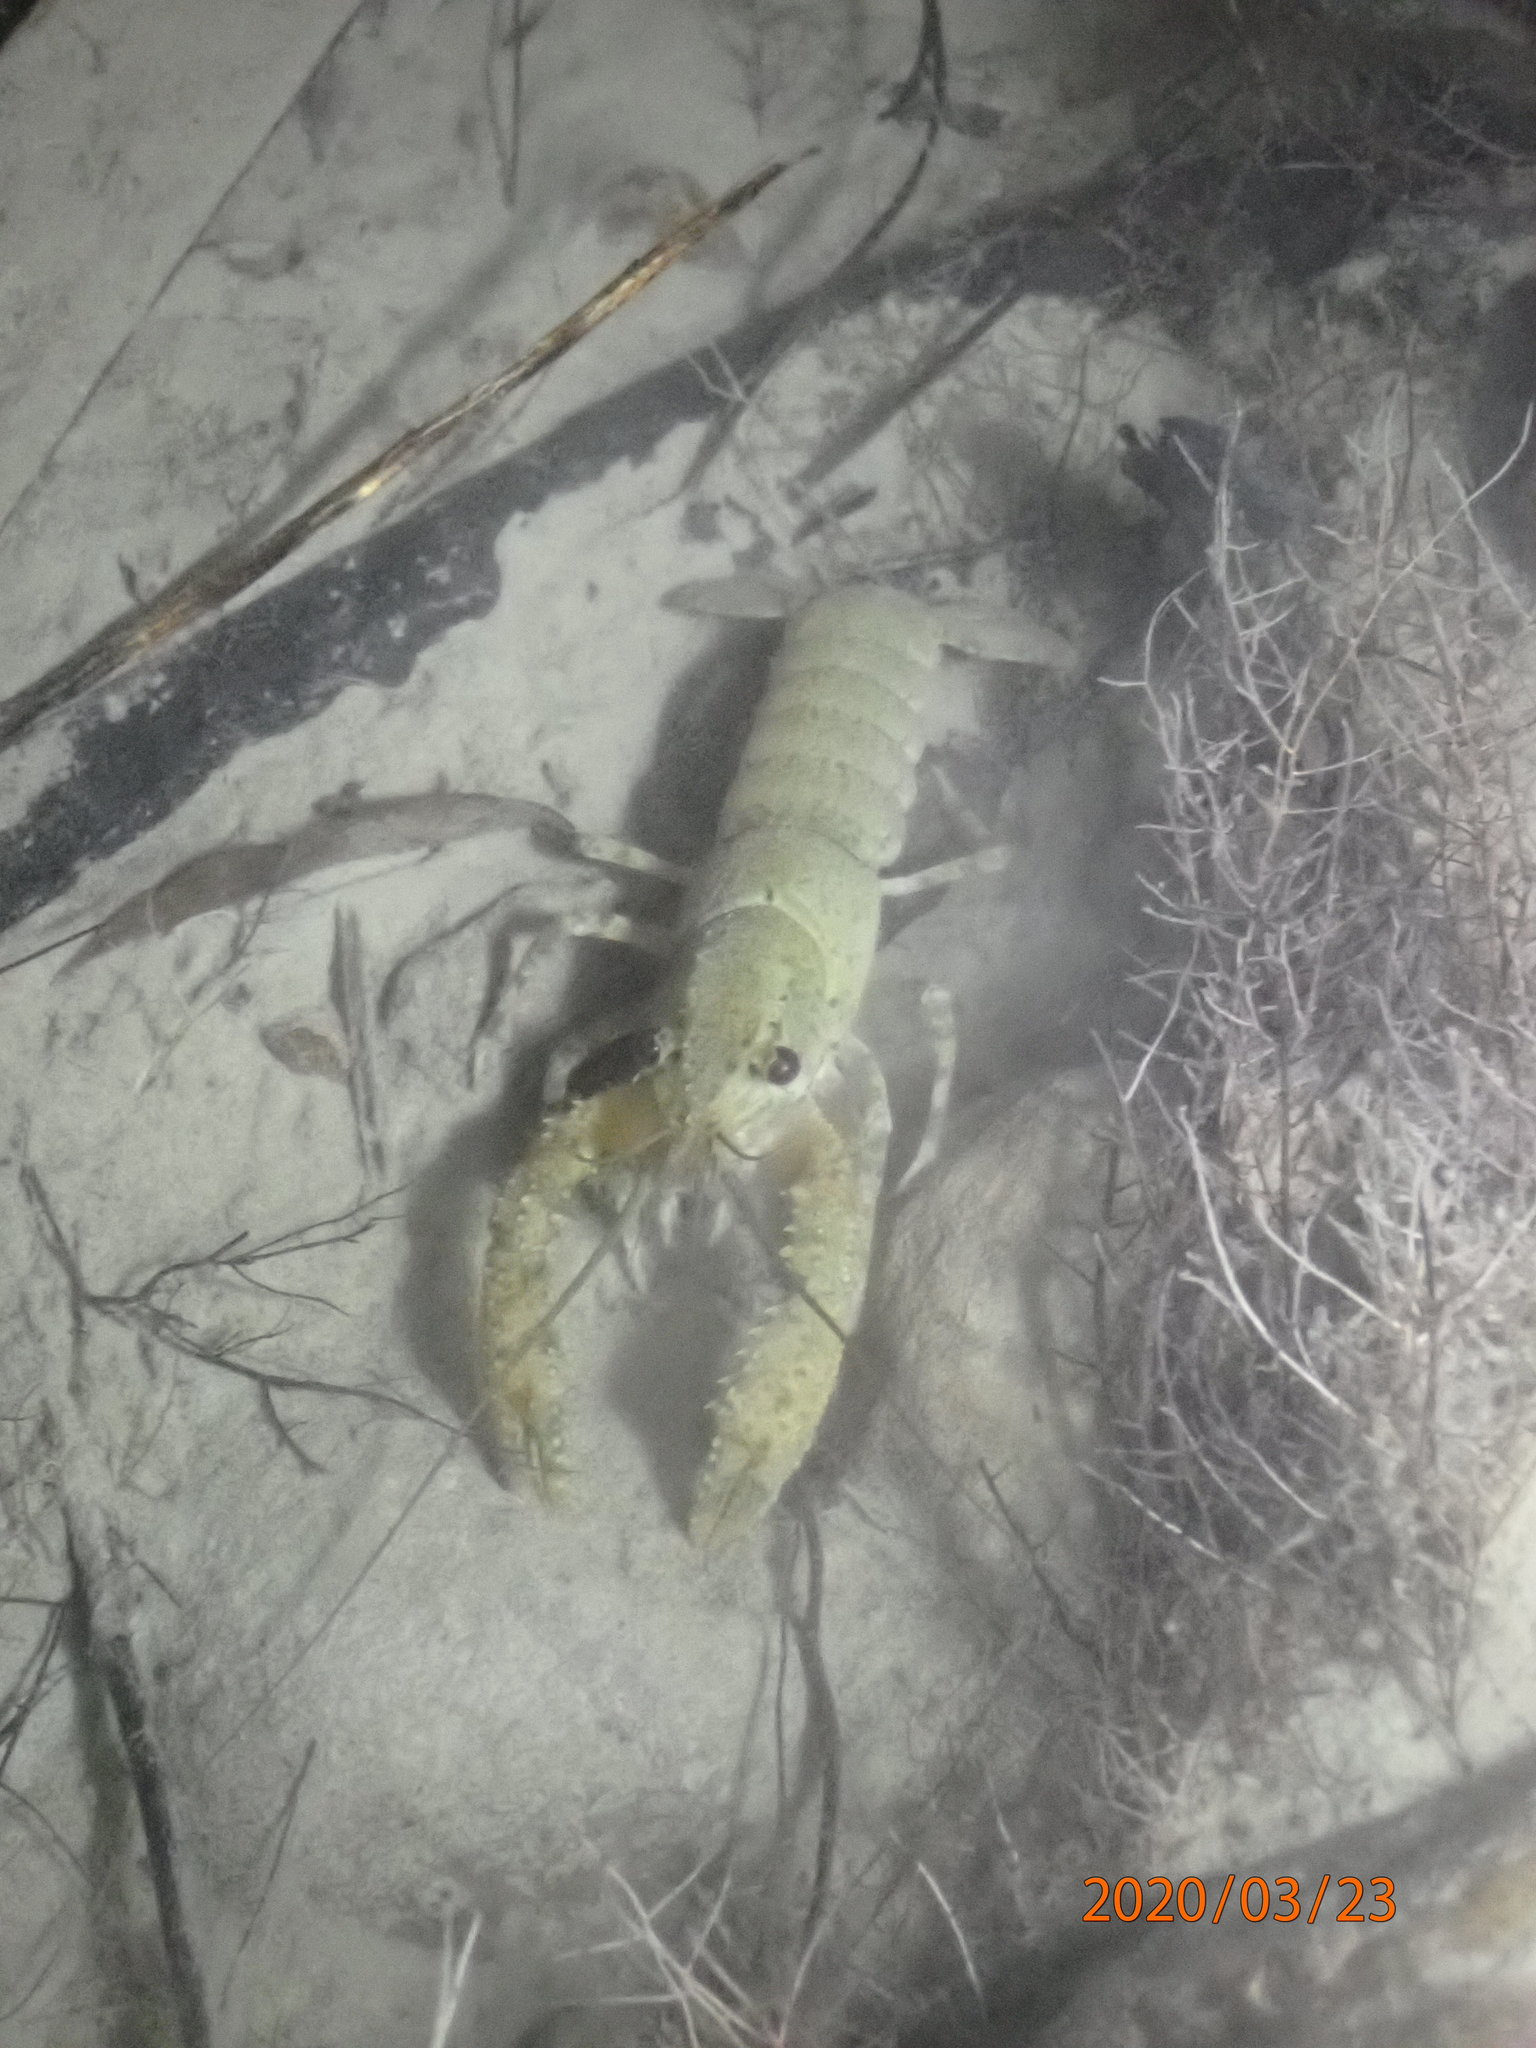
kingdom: Animalia
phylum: Arthropoda
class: Malacostraca
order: Decapoda
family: Parastacidae
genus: Paranephrops
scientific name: Paranephrops planifrons
